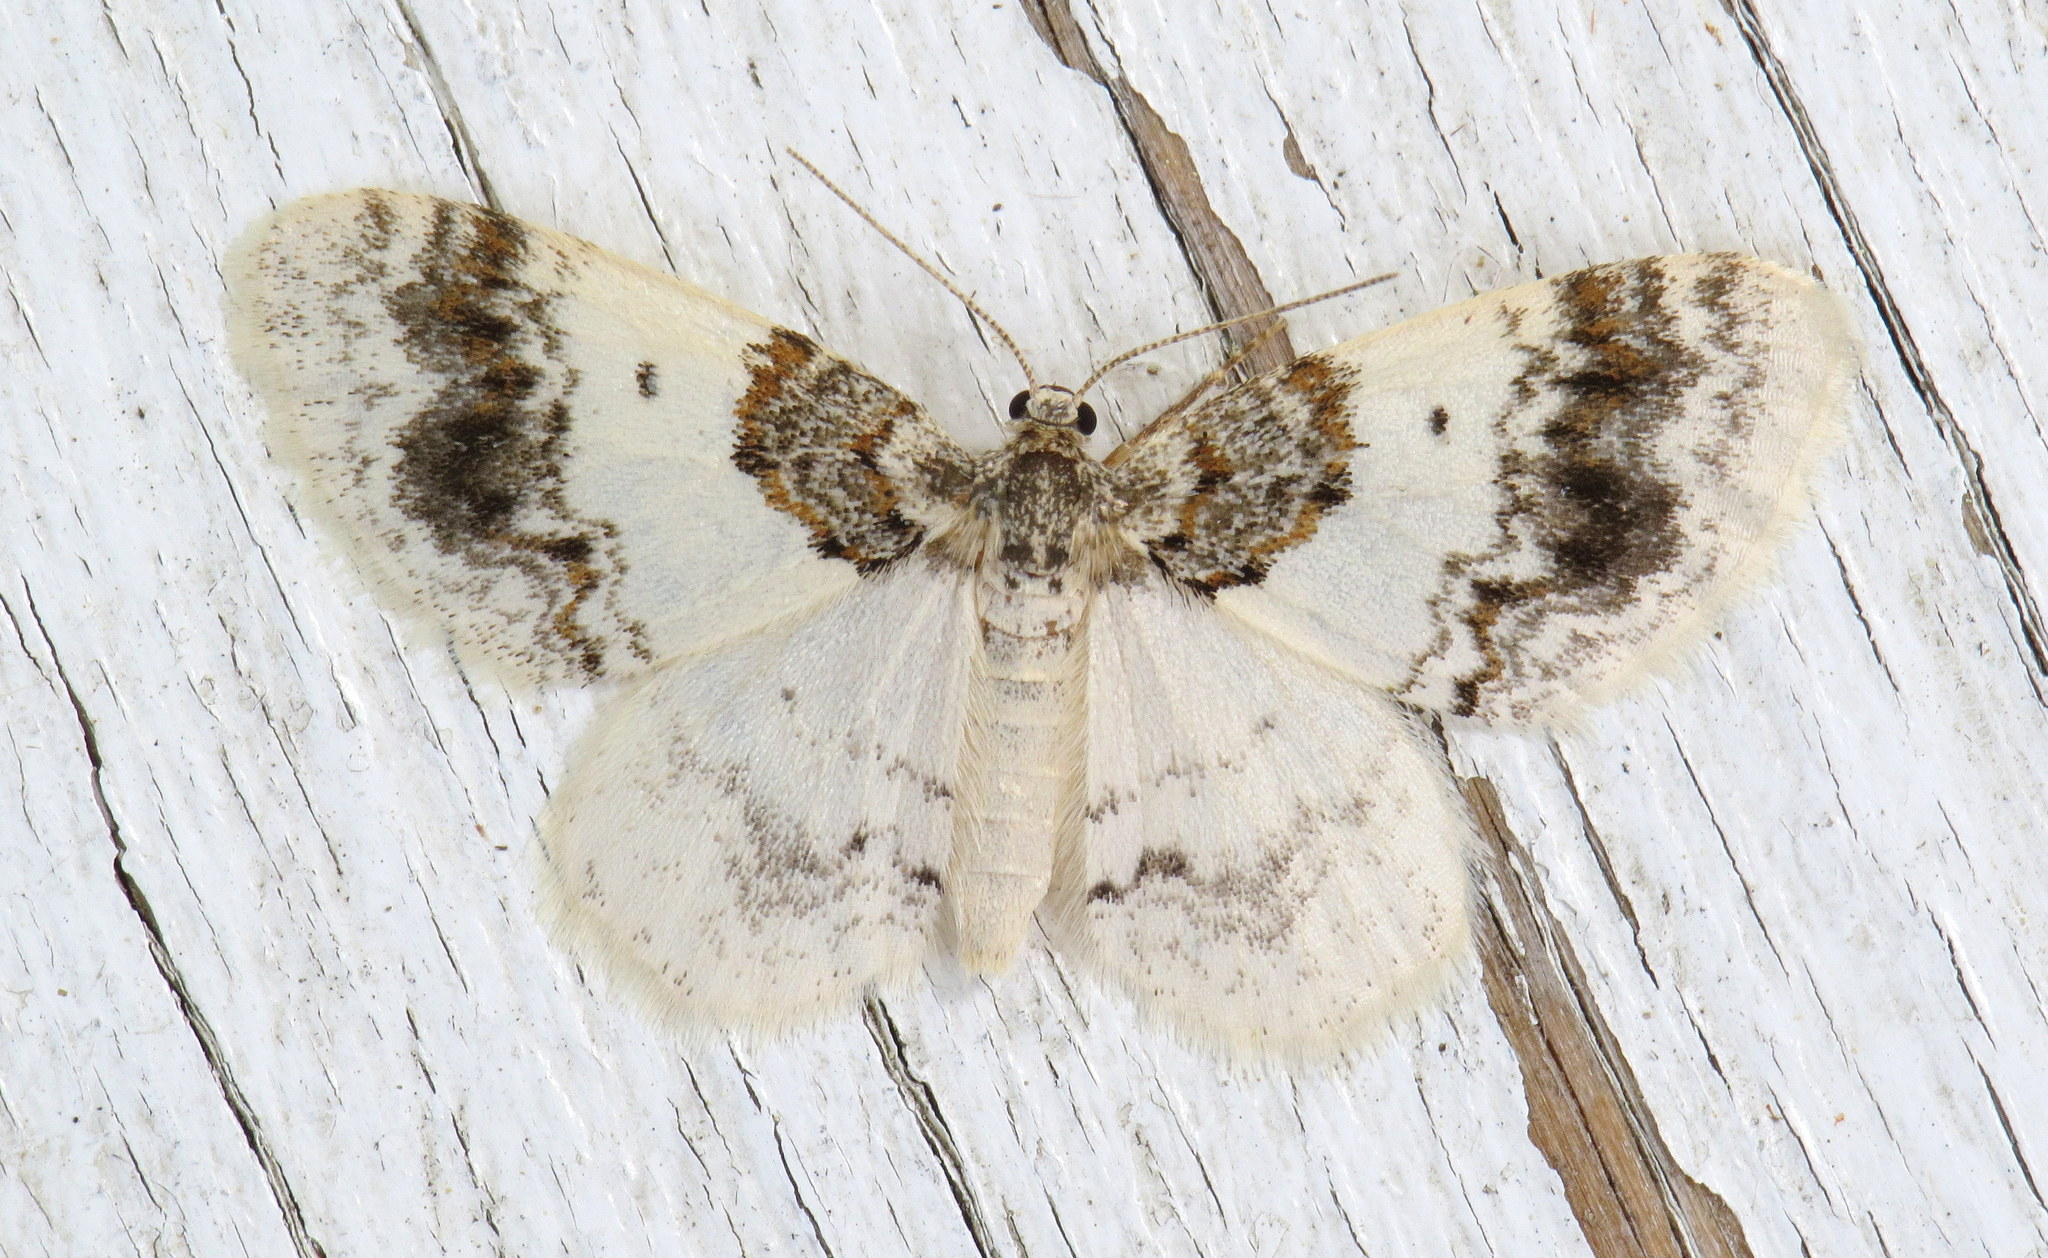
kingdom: Animalia
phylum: Arthropoda
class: Insecta
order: Lepidoptera
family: Geometridae
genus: Hydrelia
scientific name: Hydrelia condensata
